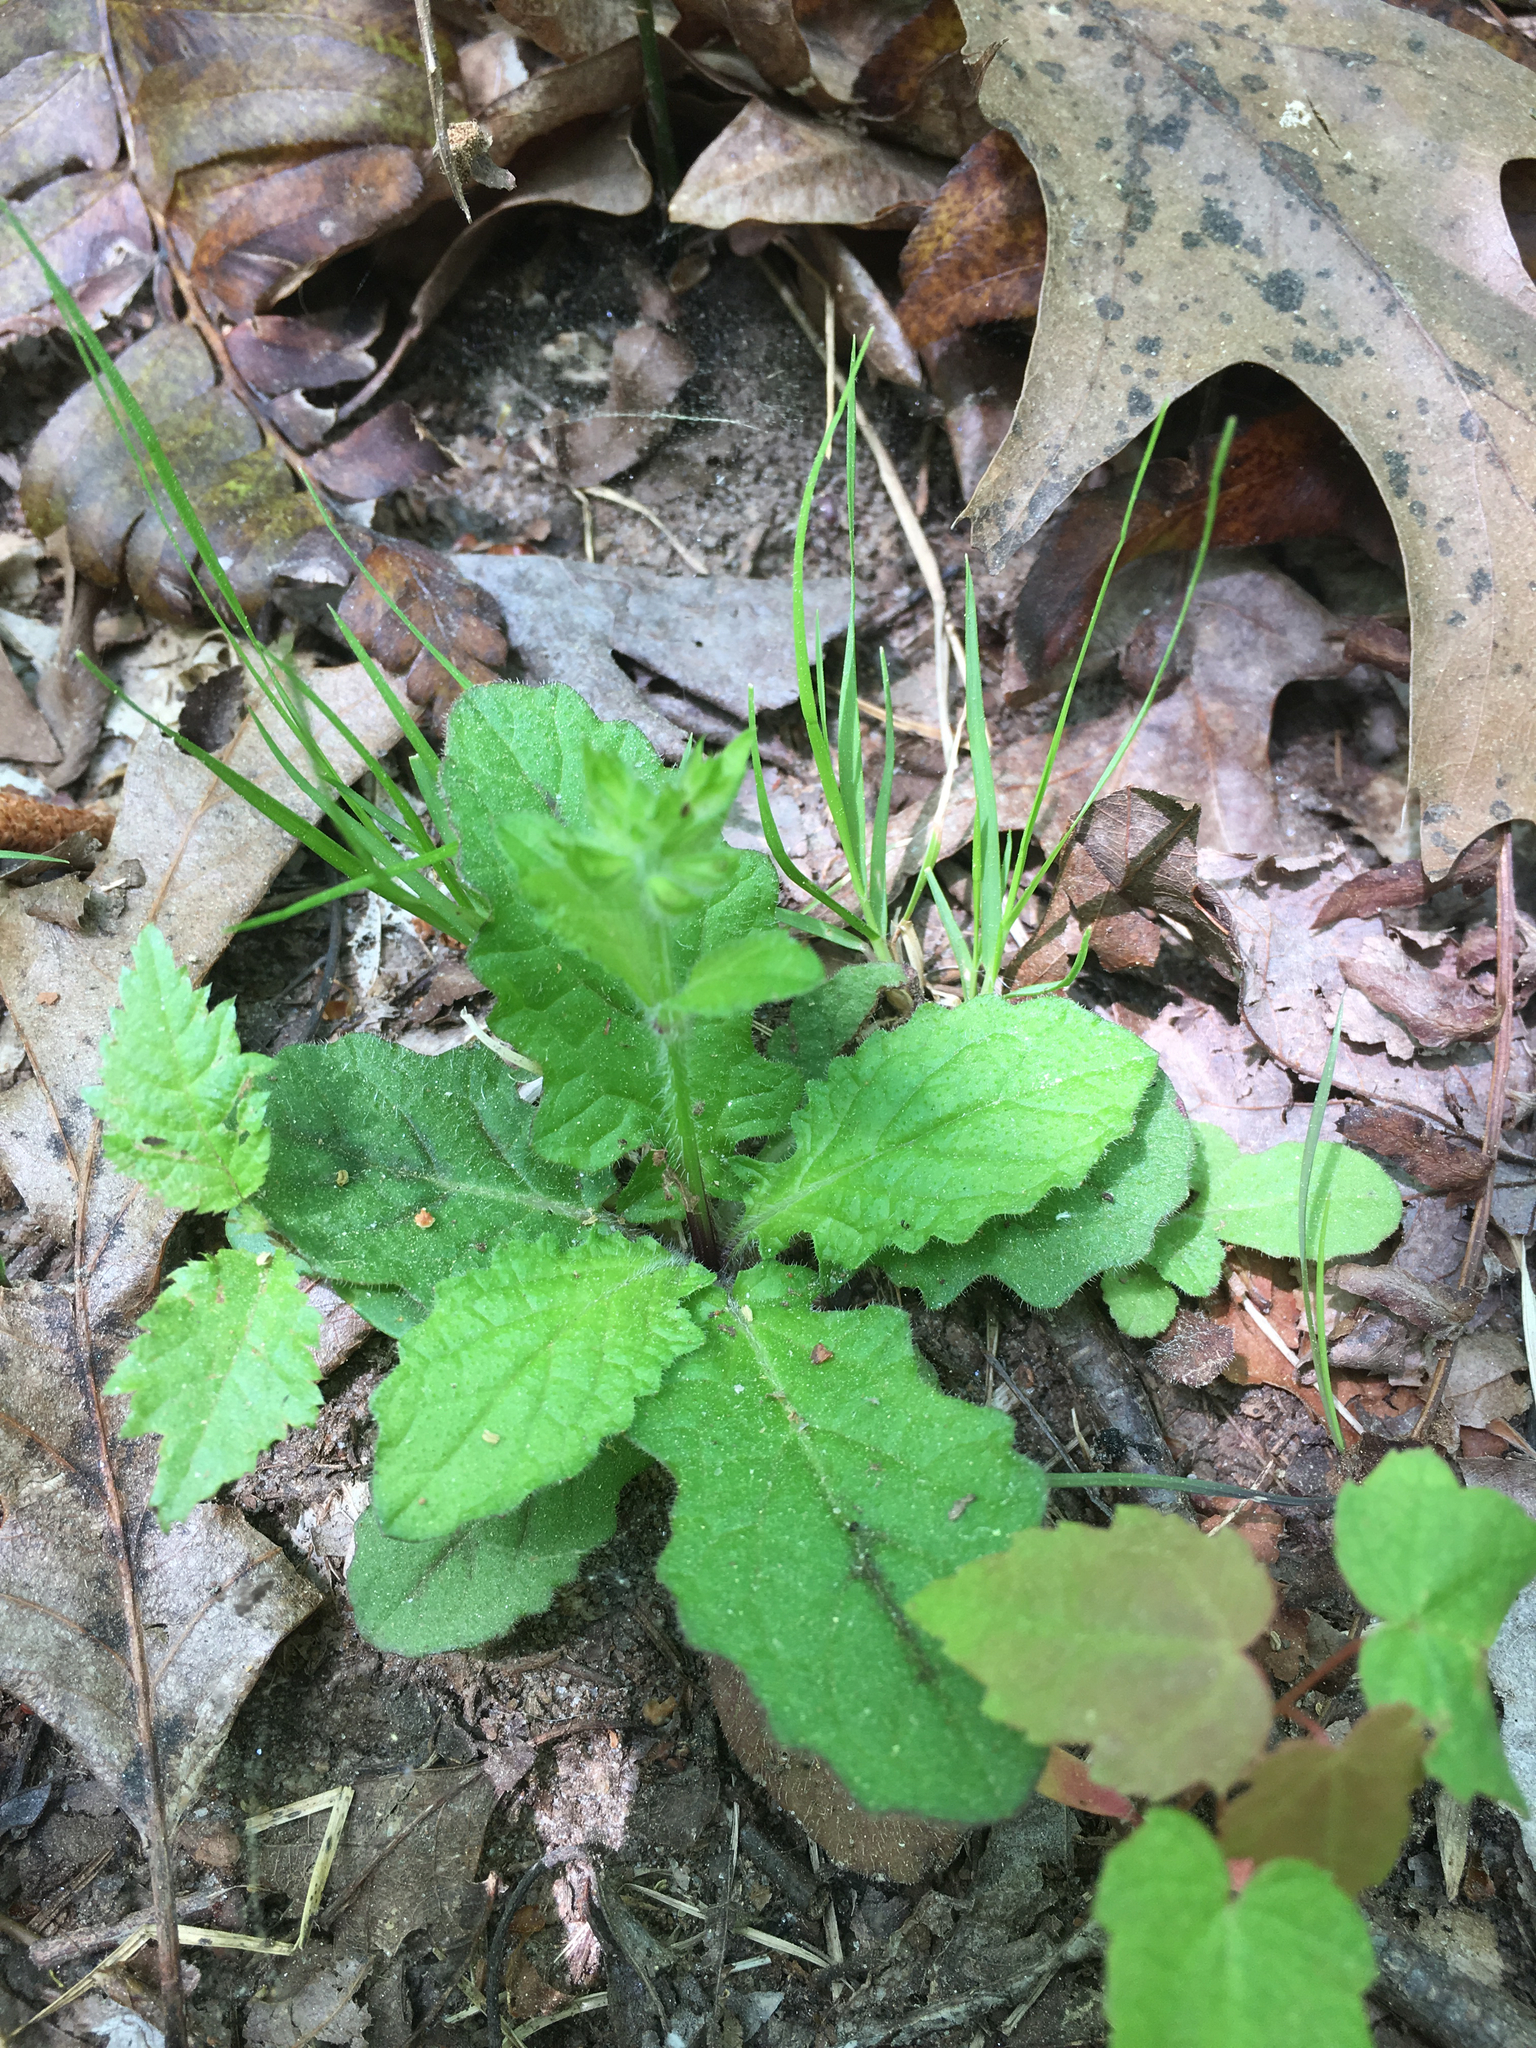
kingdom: Plantae
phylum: Tracheophyta
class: Magnoliopsida
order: Lamiales
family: Lamiaceae
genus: Salvia
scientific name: Salvia lyrata
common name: Cancerweed
